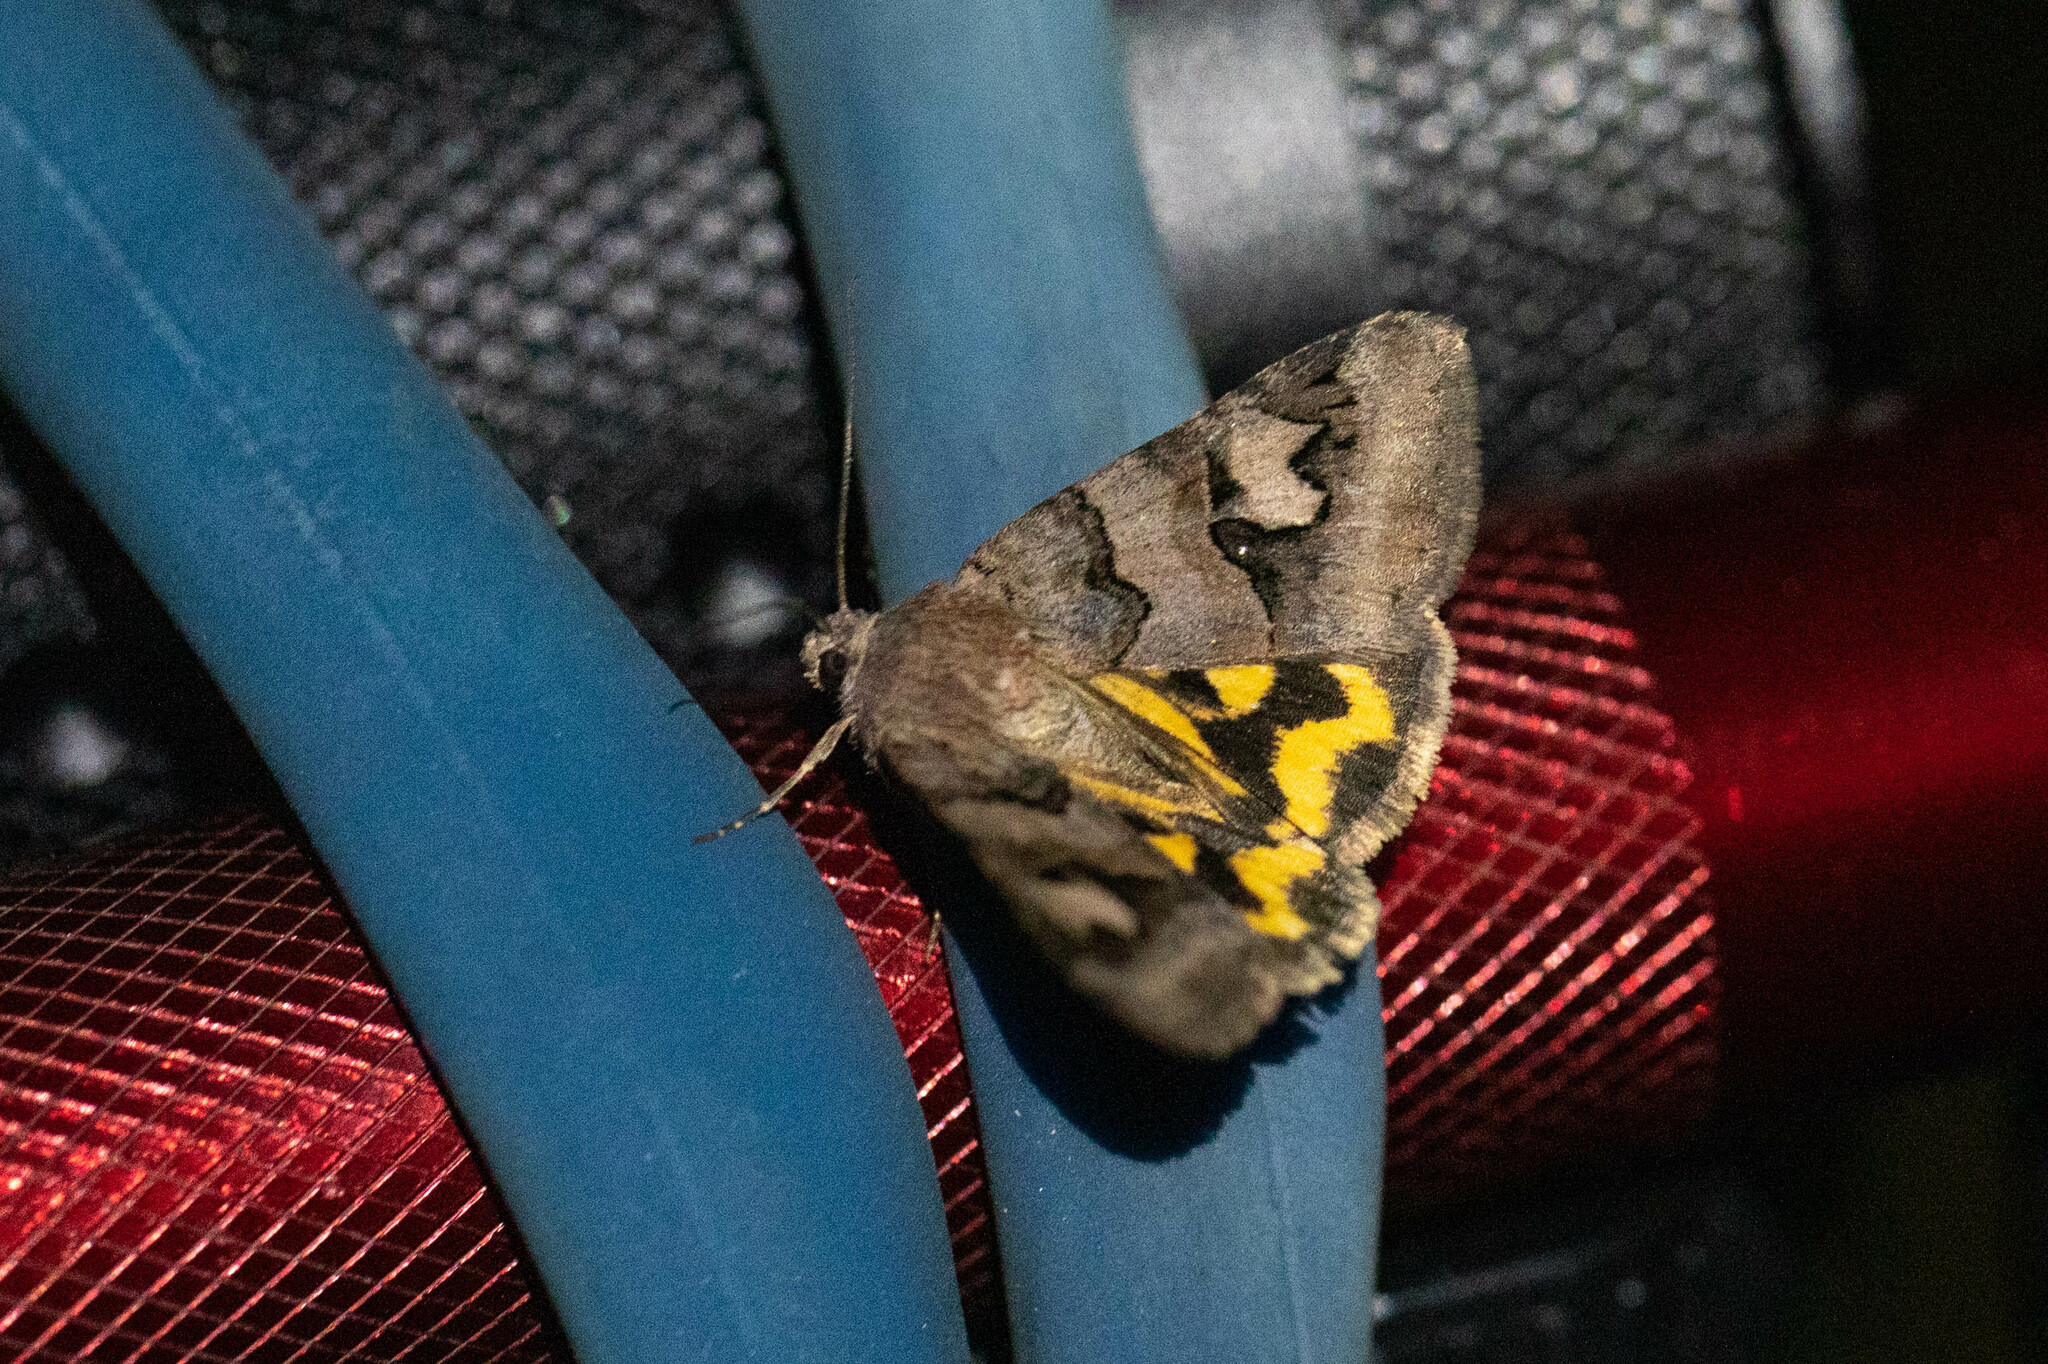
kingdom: Animalia
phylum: Arthropoda
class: Insecta
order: Lepidoptera
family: Erebidae
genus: Drasteria
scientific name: Drasteria adumbrata
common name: Shadowy arches
